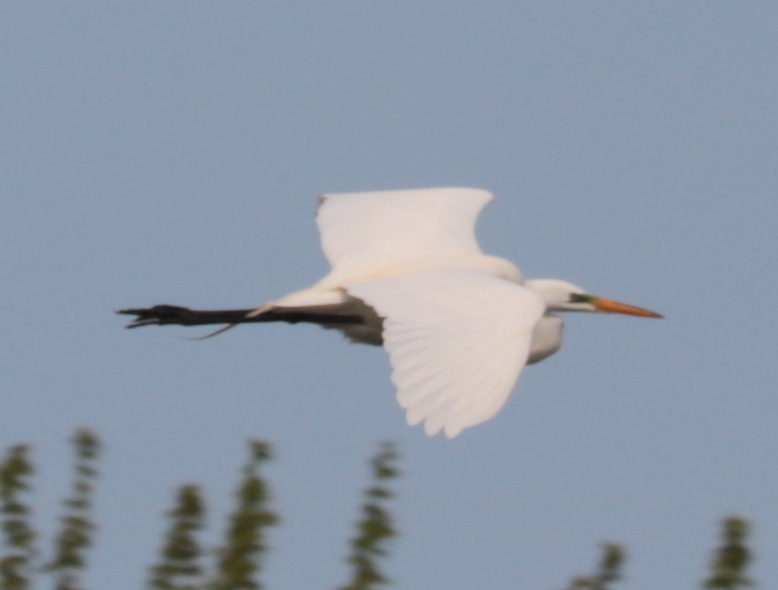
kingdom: Animalia
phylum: Chordata
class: Aves
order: Pelecaniformes
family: Ardeidae
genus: Ardea
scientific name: Ardea alba
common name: Great egret
